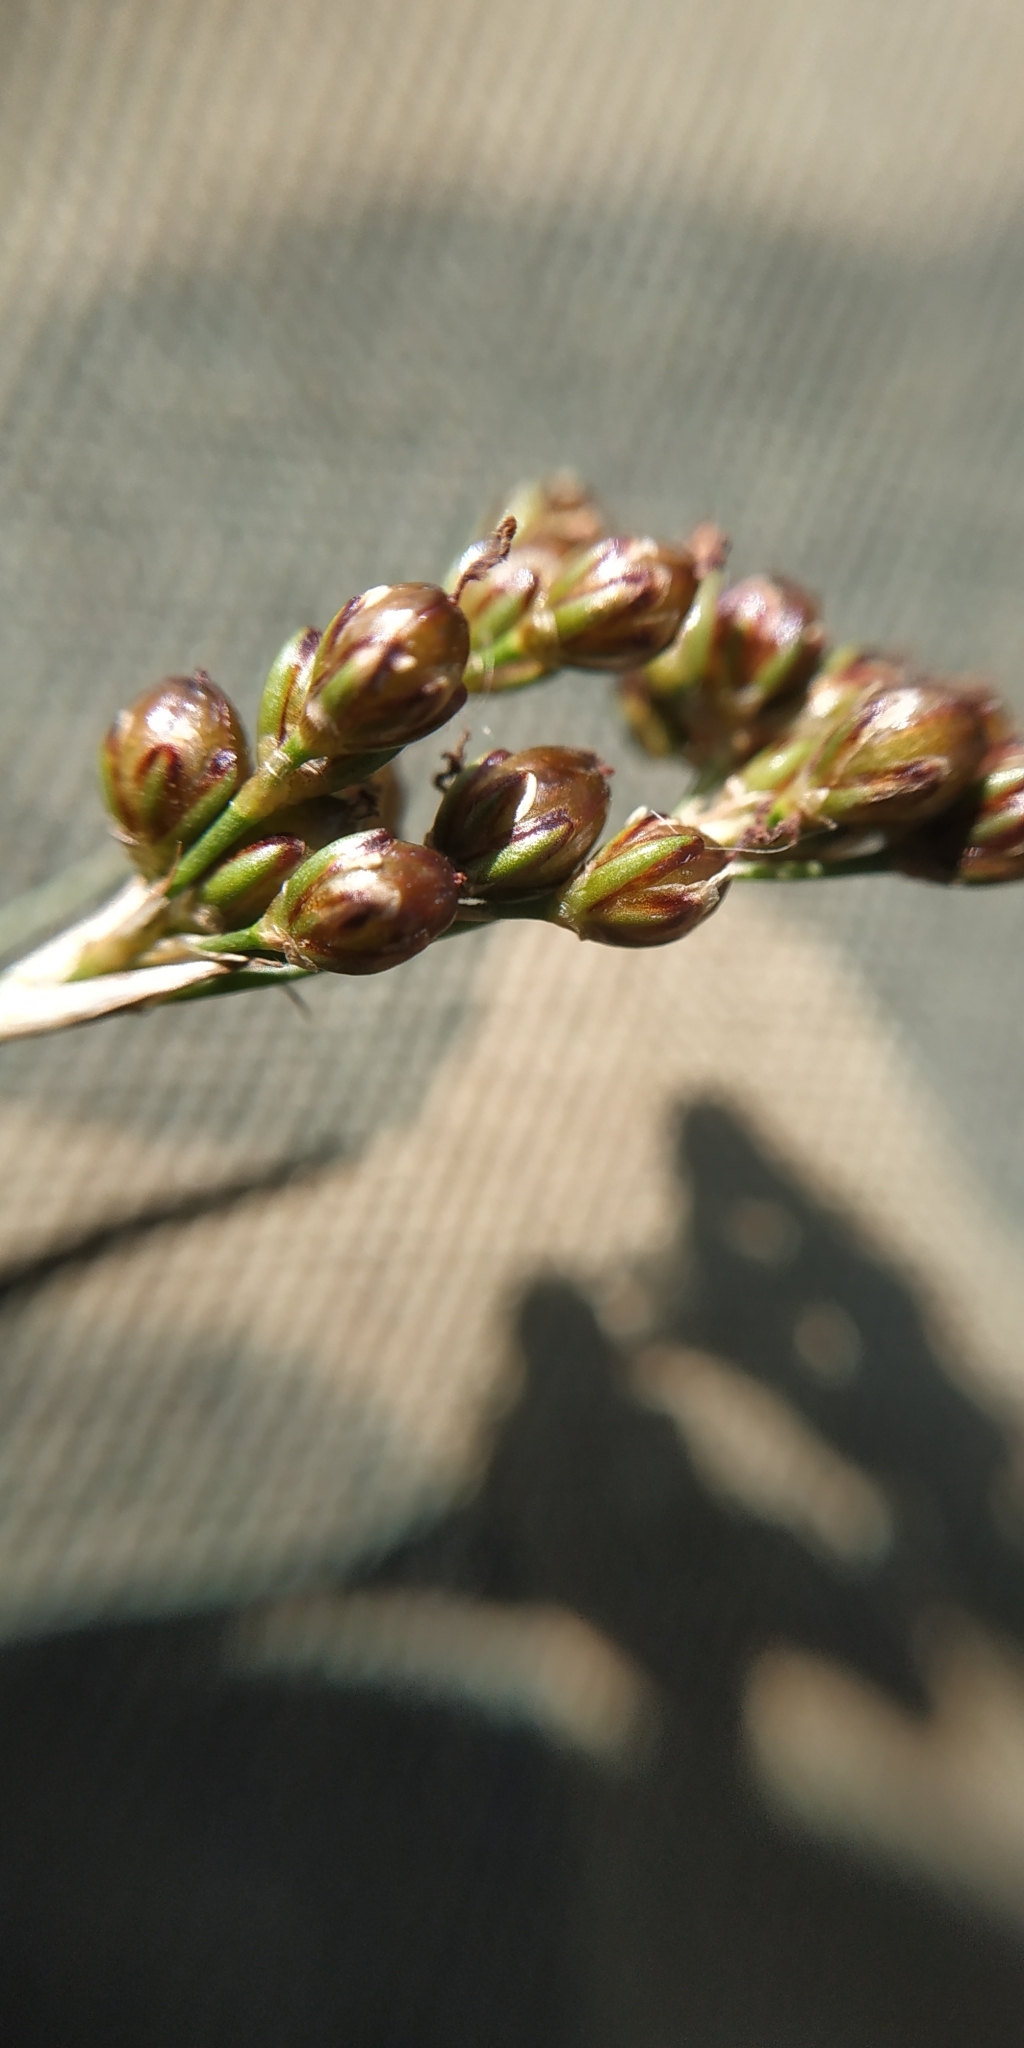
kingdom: Plantae
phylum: Tracheophyta
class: Liliopsida
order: Poales
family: Juncaceae
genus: Juncus
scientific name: Juncus compressus
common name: Round-fruited rush
